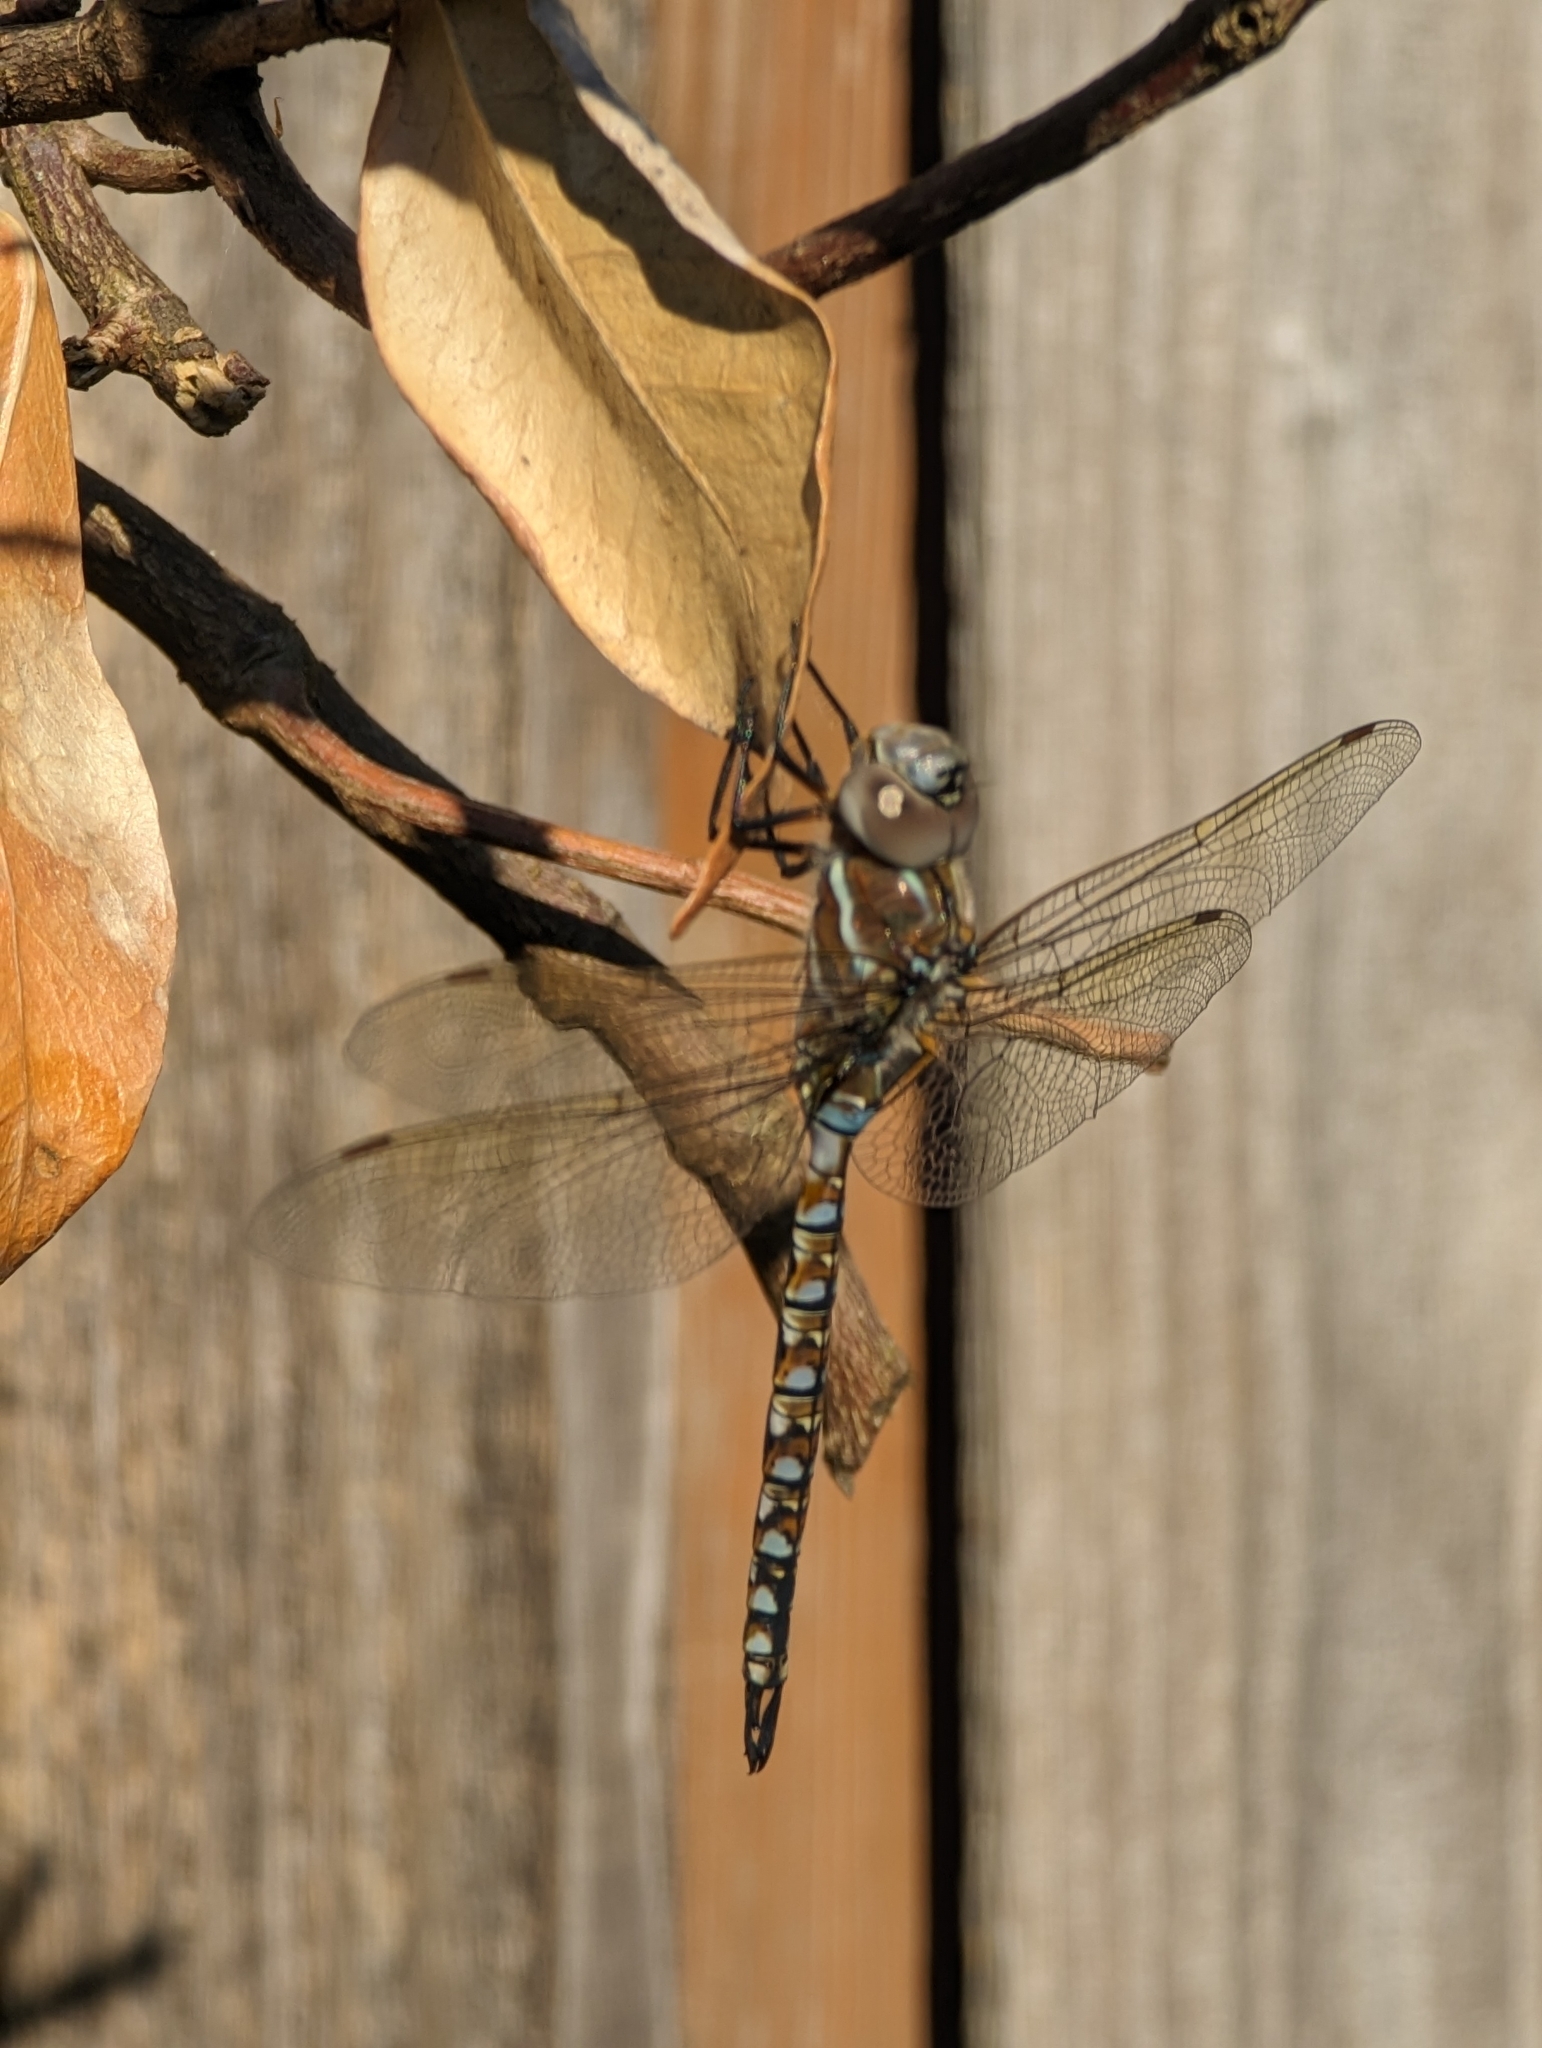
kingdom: Animalia
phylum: Arthropoda
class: Insecta
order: Odonata
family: Aeshnidae
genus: Rhionaeschna
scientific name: Rhionaeschna multicolor
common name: Blue-eyed darner
